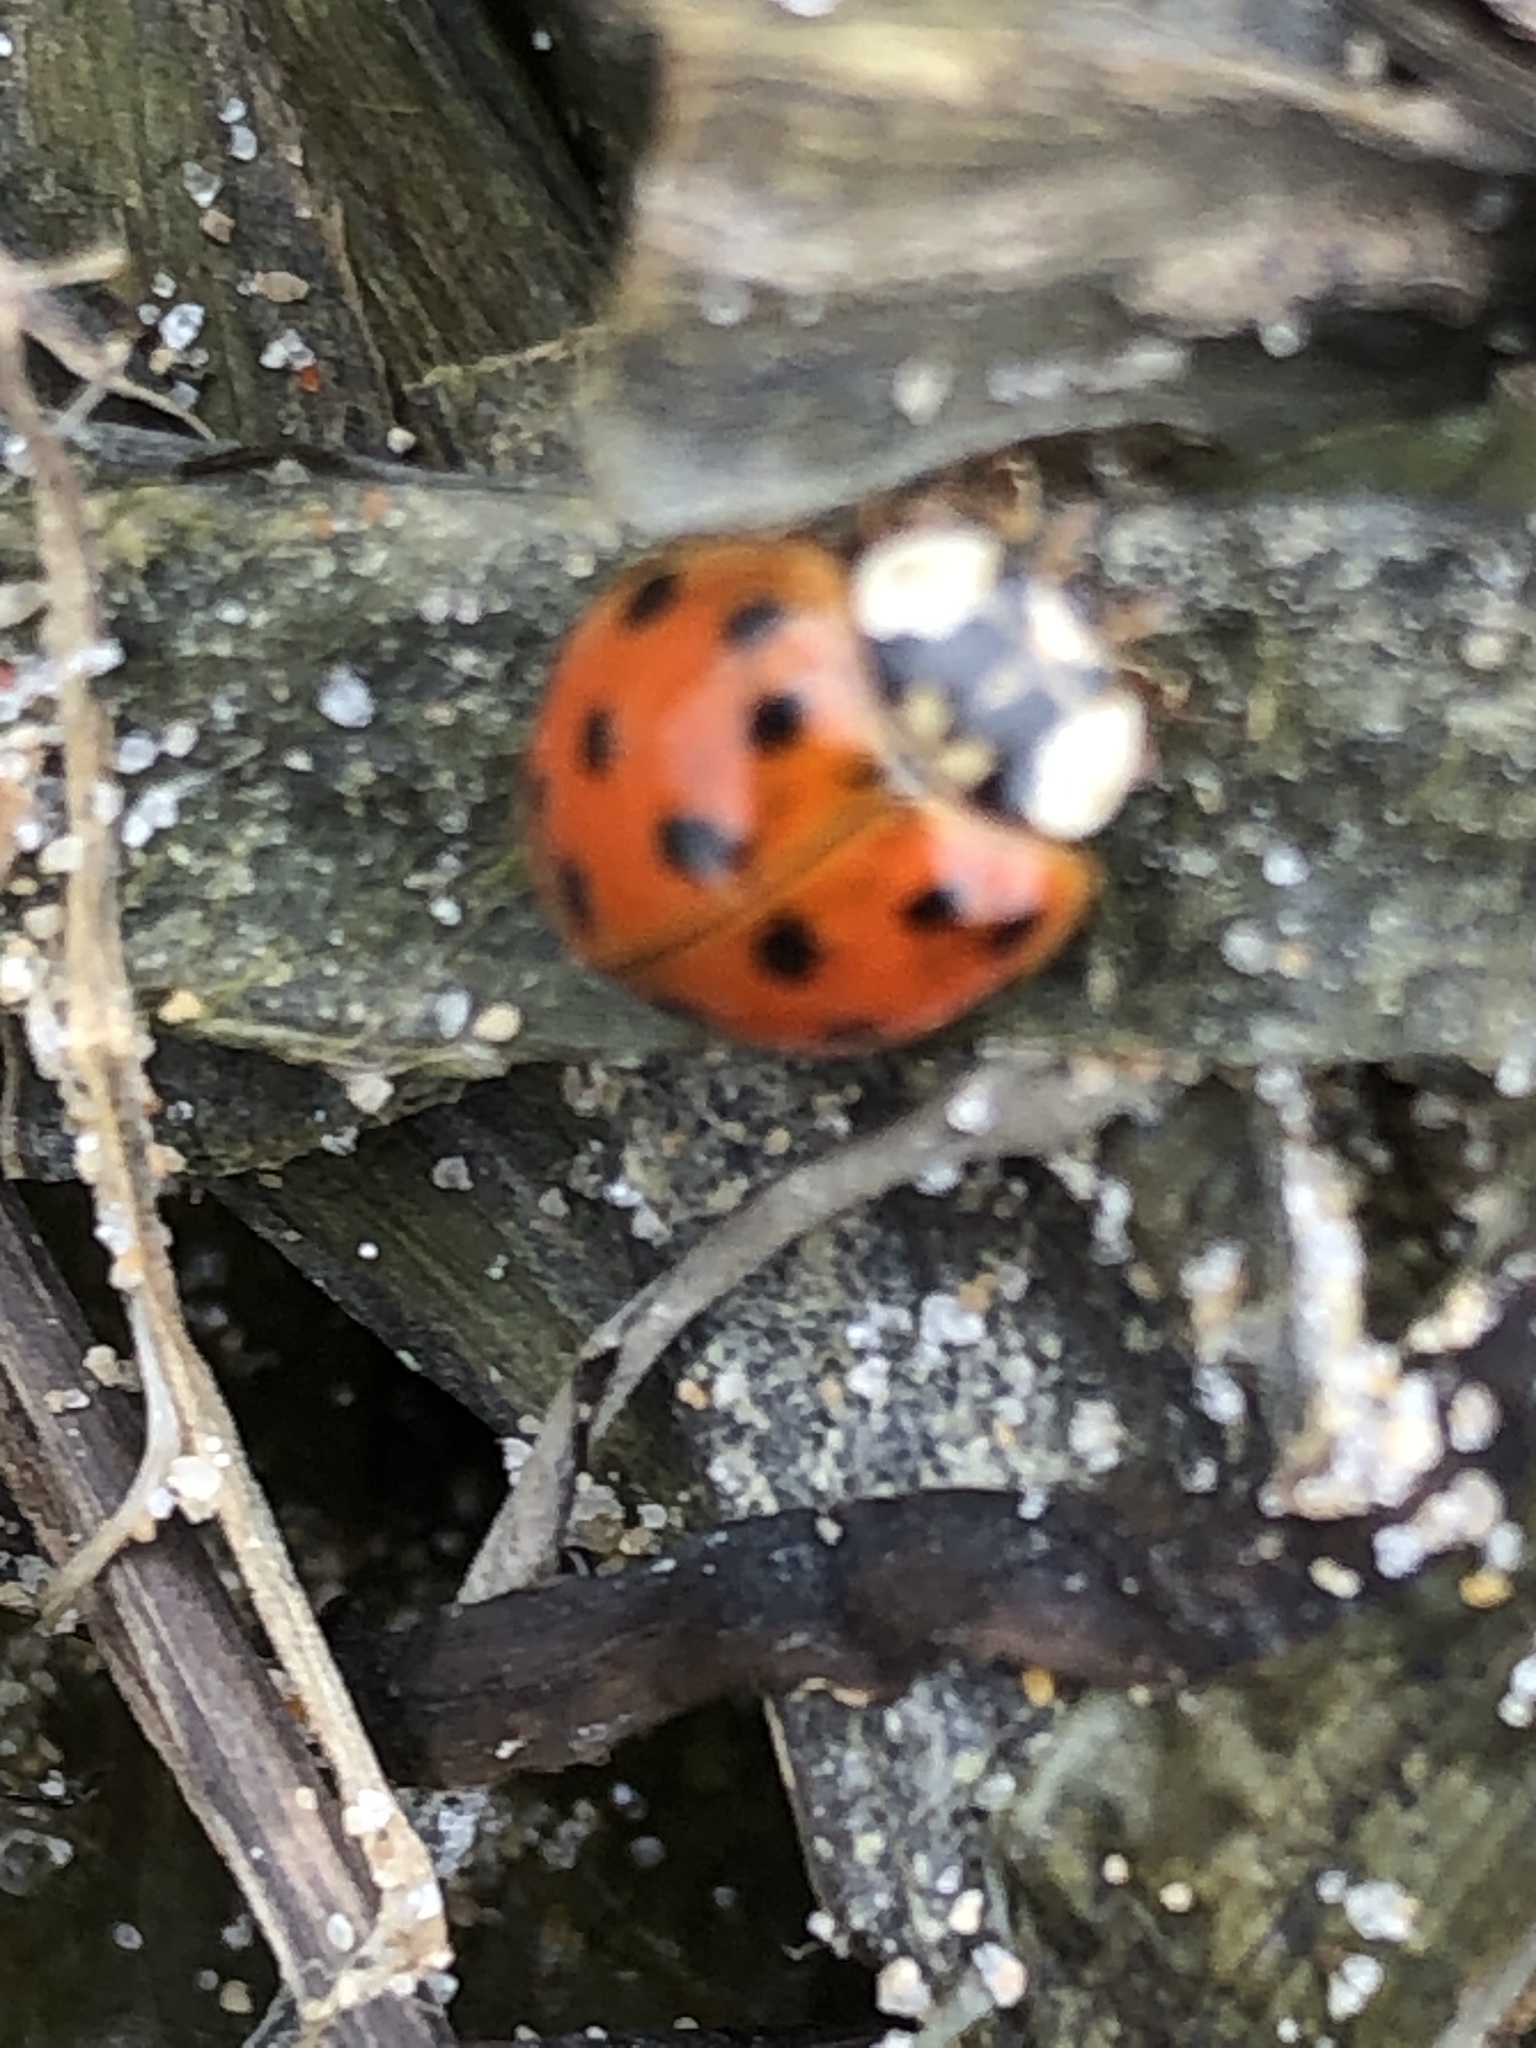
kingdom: Animalia
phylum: Arthropoda
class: Insecta
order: Coleoptera
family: Coccinellidae
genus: Harmonia
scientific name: Harmonia axyridis
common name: Harlequin ladybird
